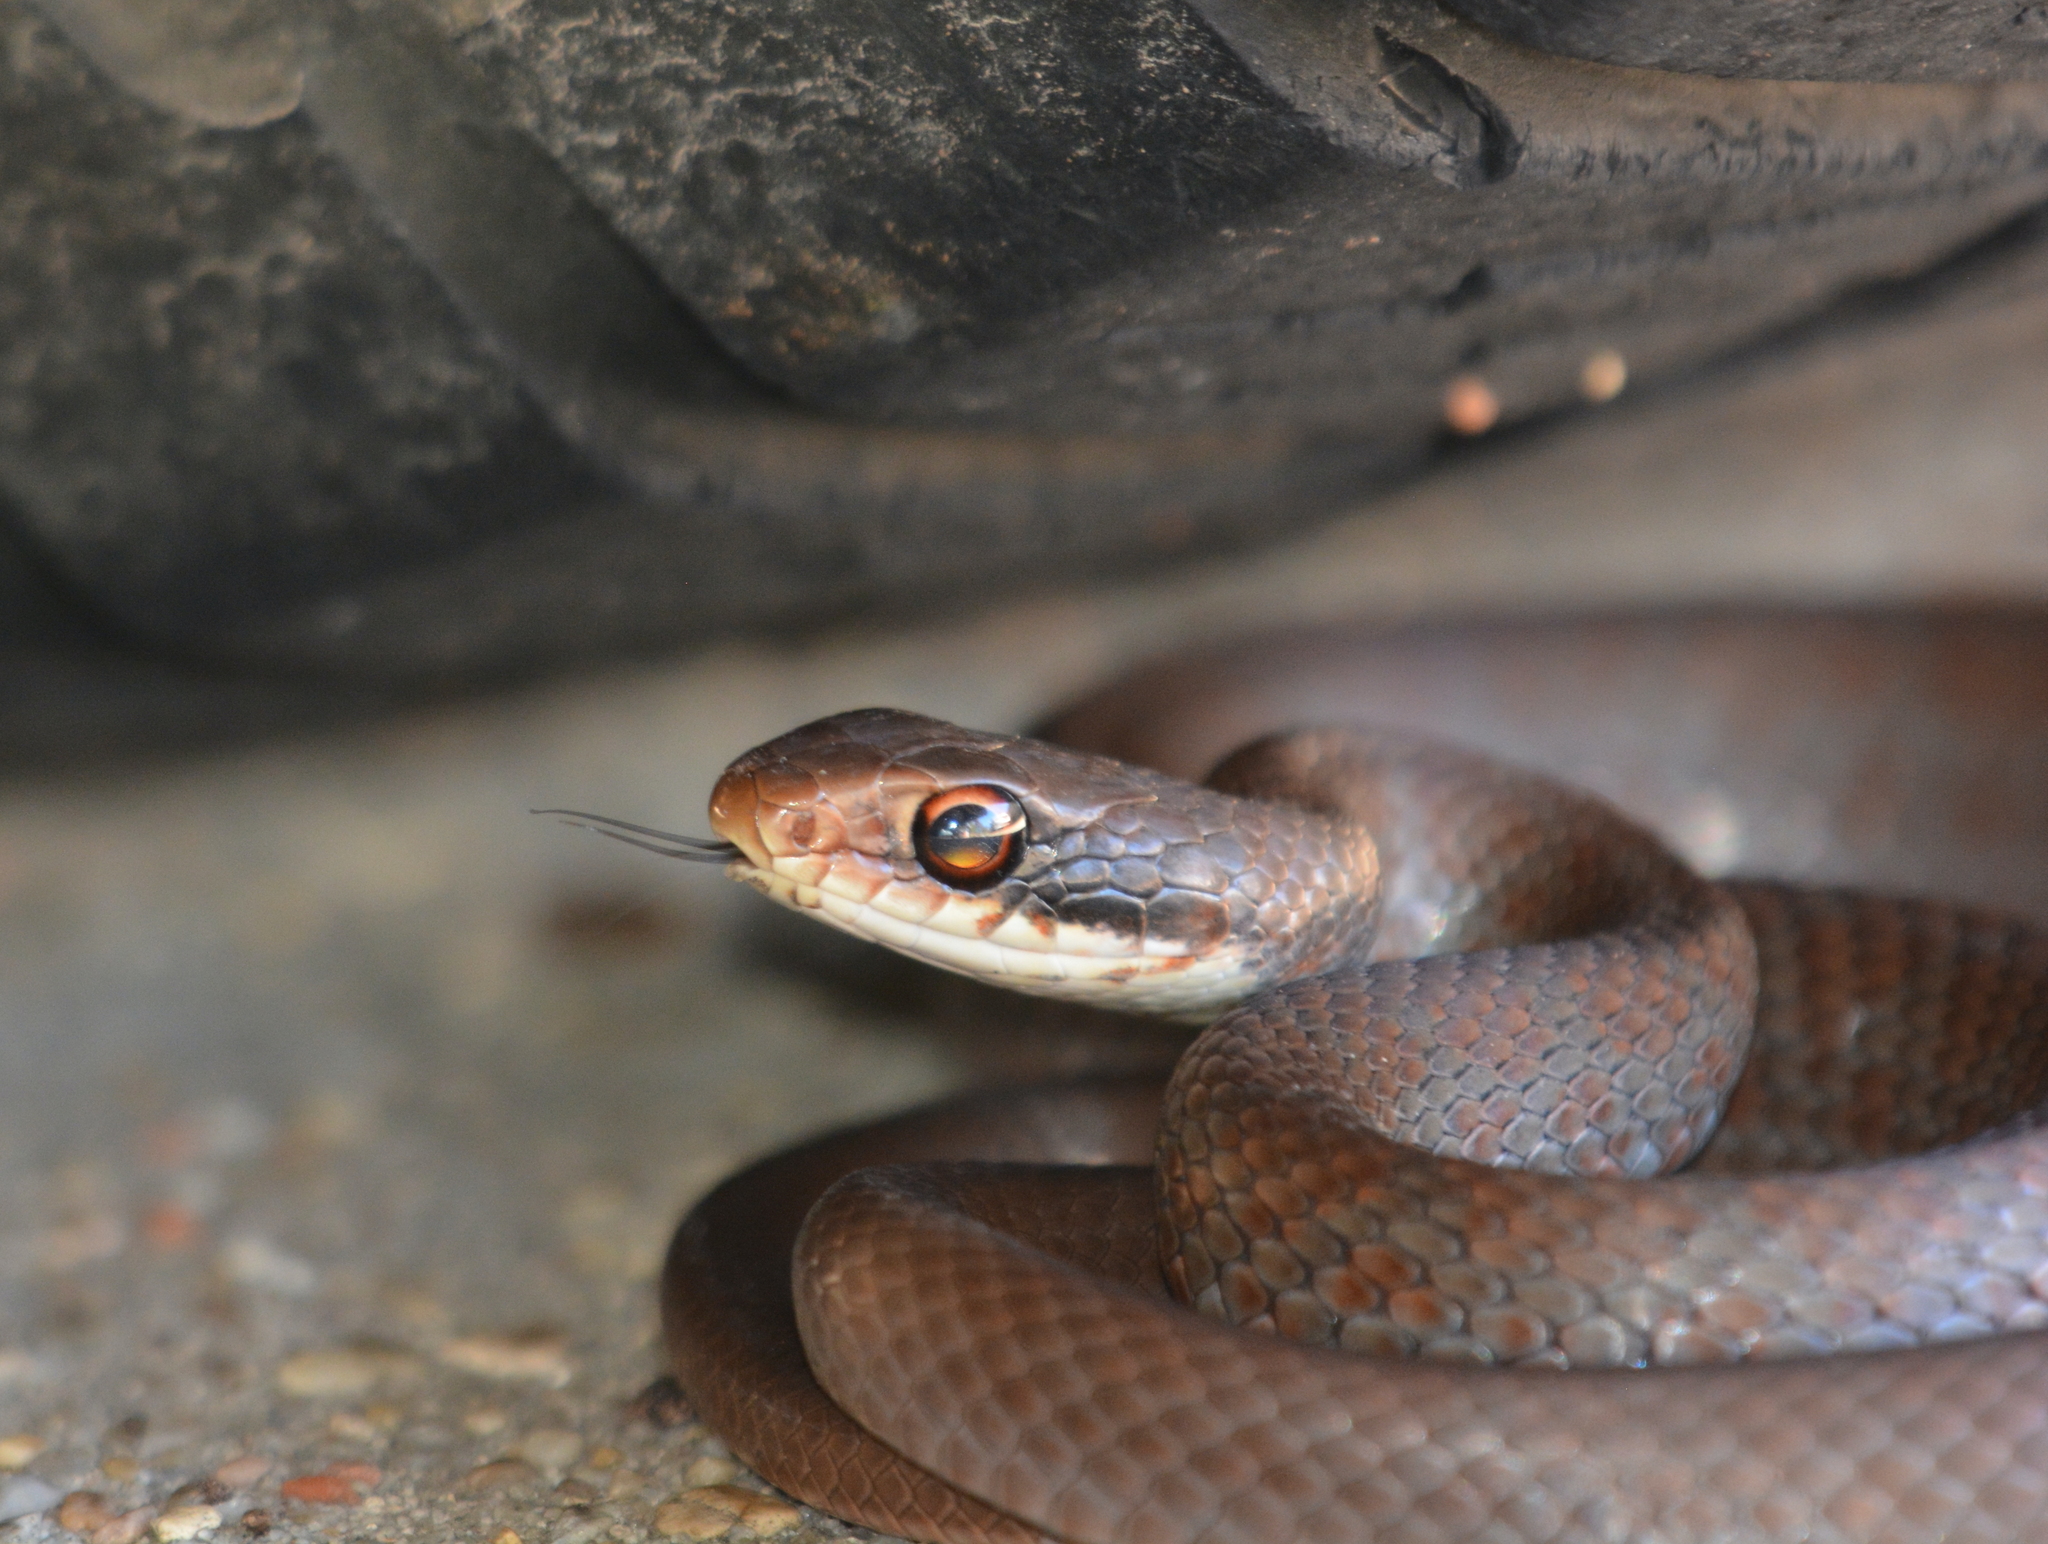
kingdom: Animalia
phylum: Chordata
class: Squamata
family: Colubridae
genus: Coluber
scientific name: Coluber constrictor
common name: Eastern racer
